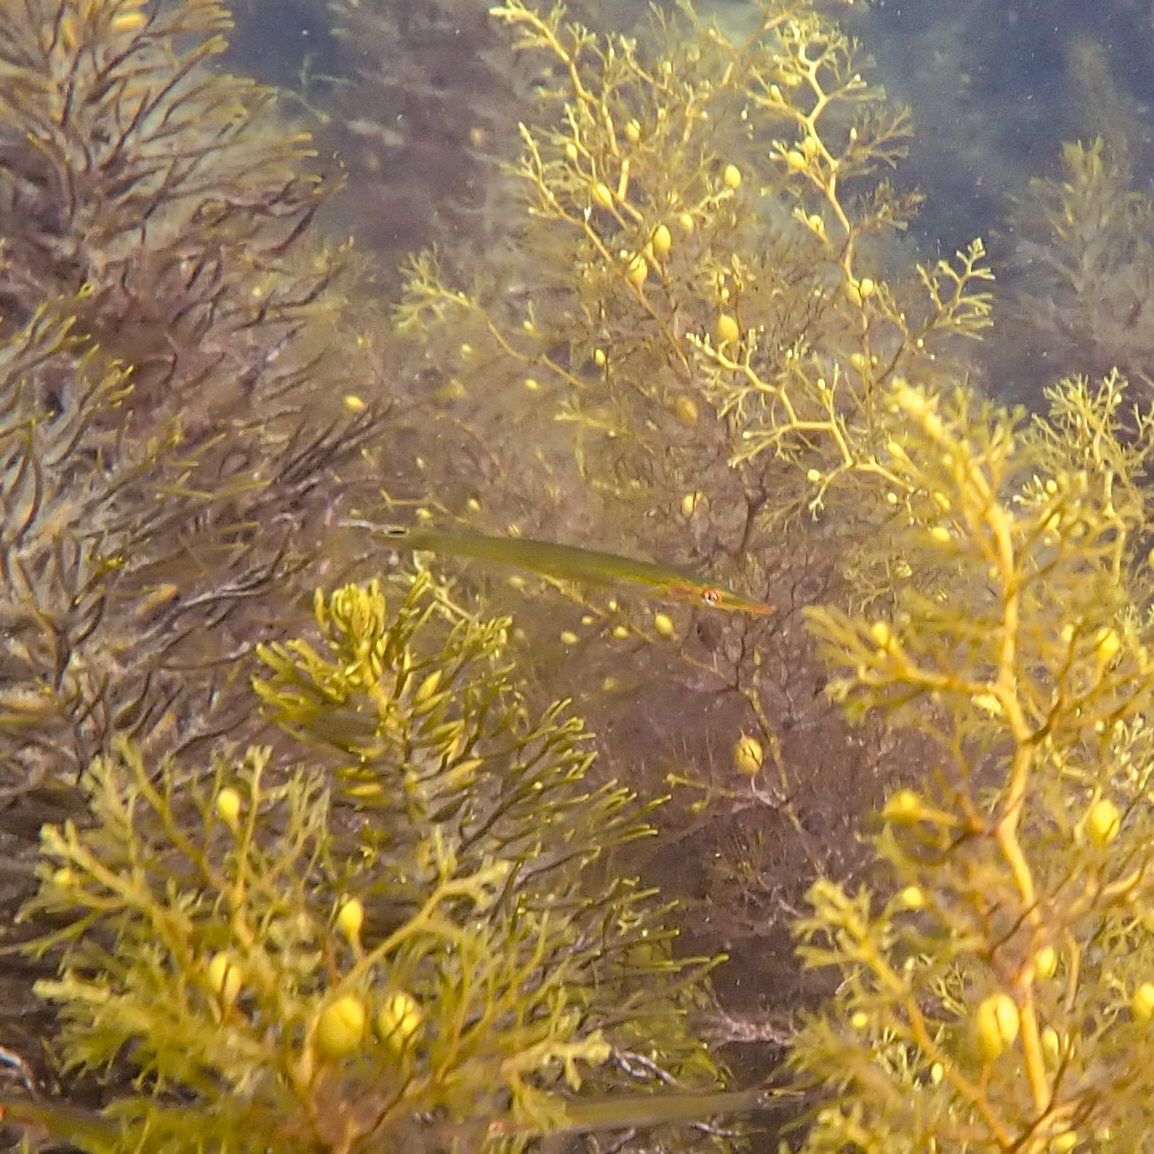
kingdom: Animalia
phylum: Chordata
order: Perciformes
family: Odacidae
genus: Siphonognathus
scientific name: Siphonognathus
